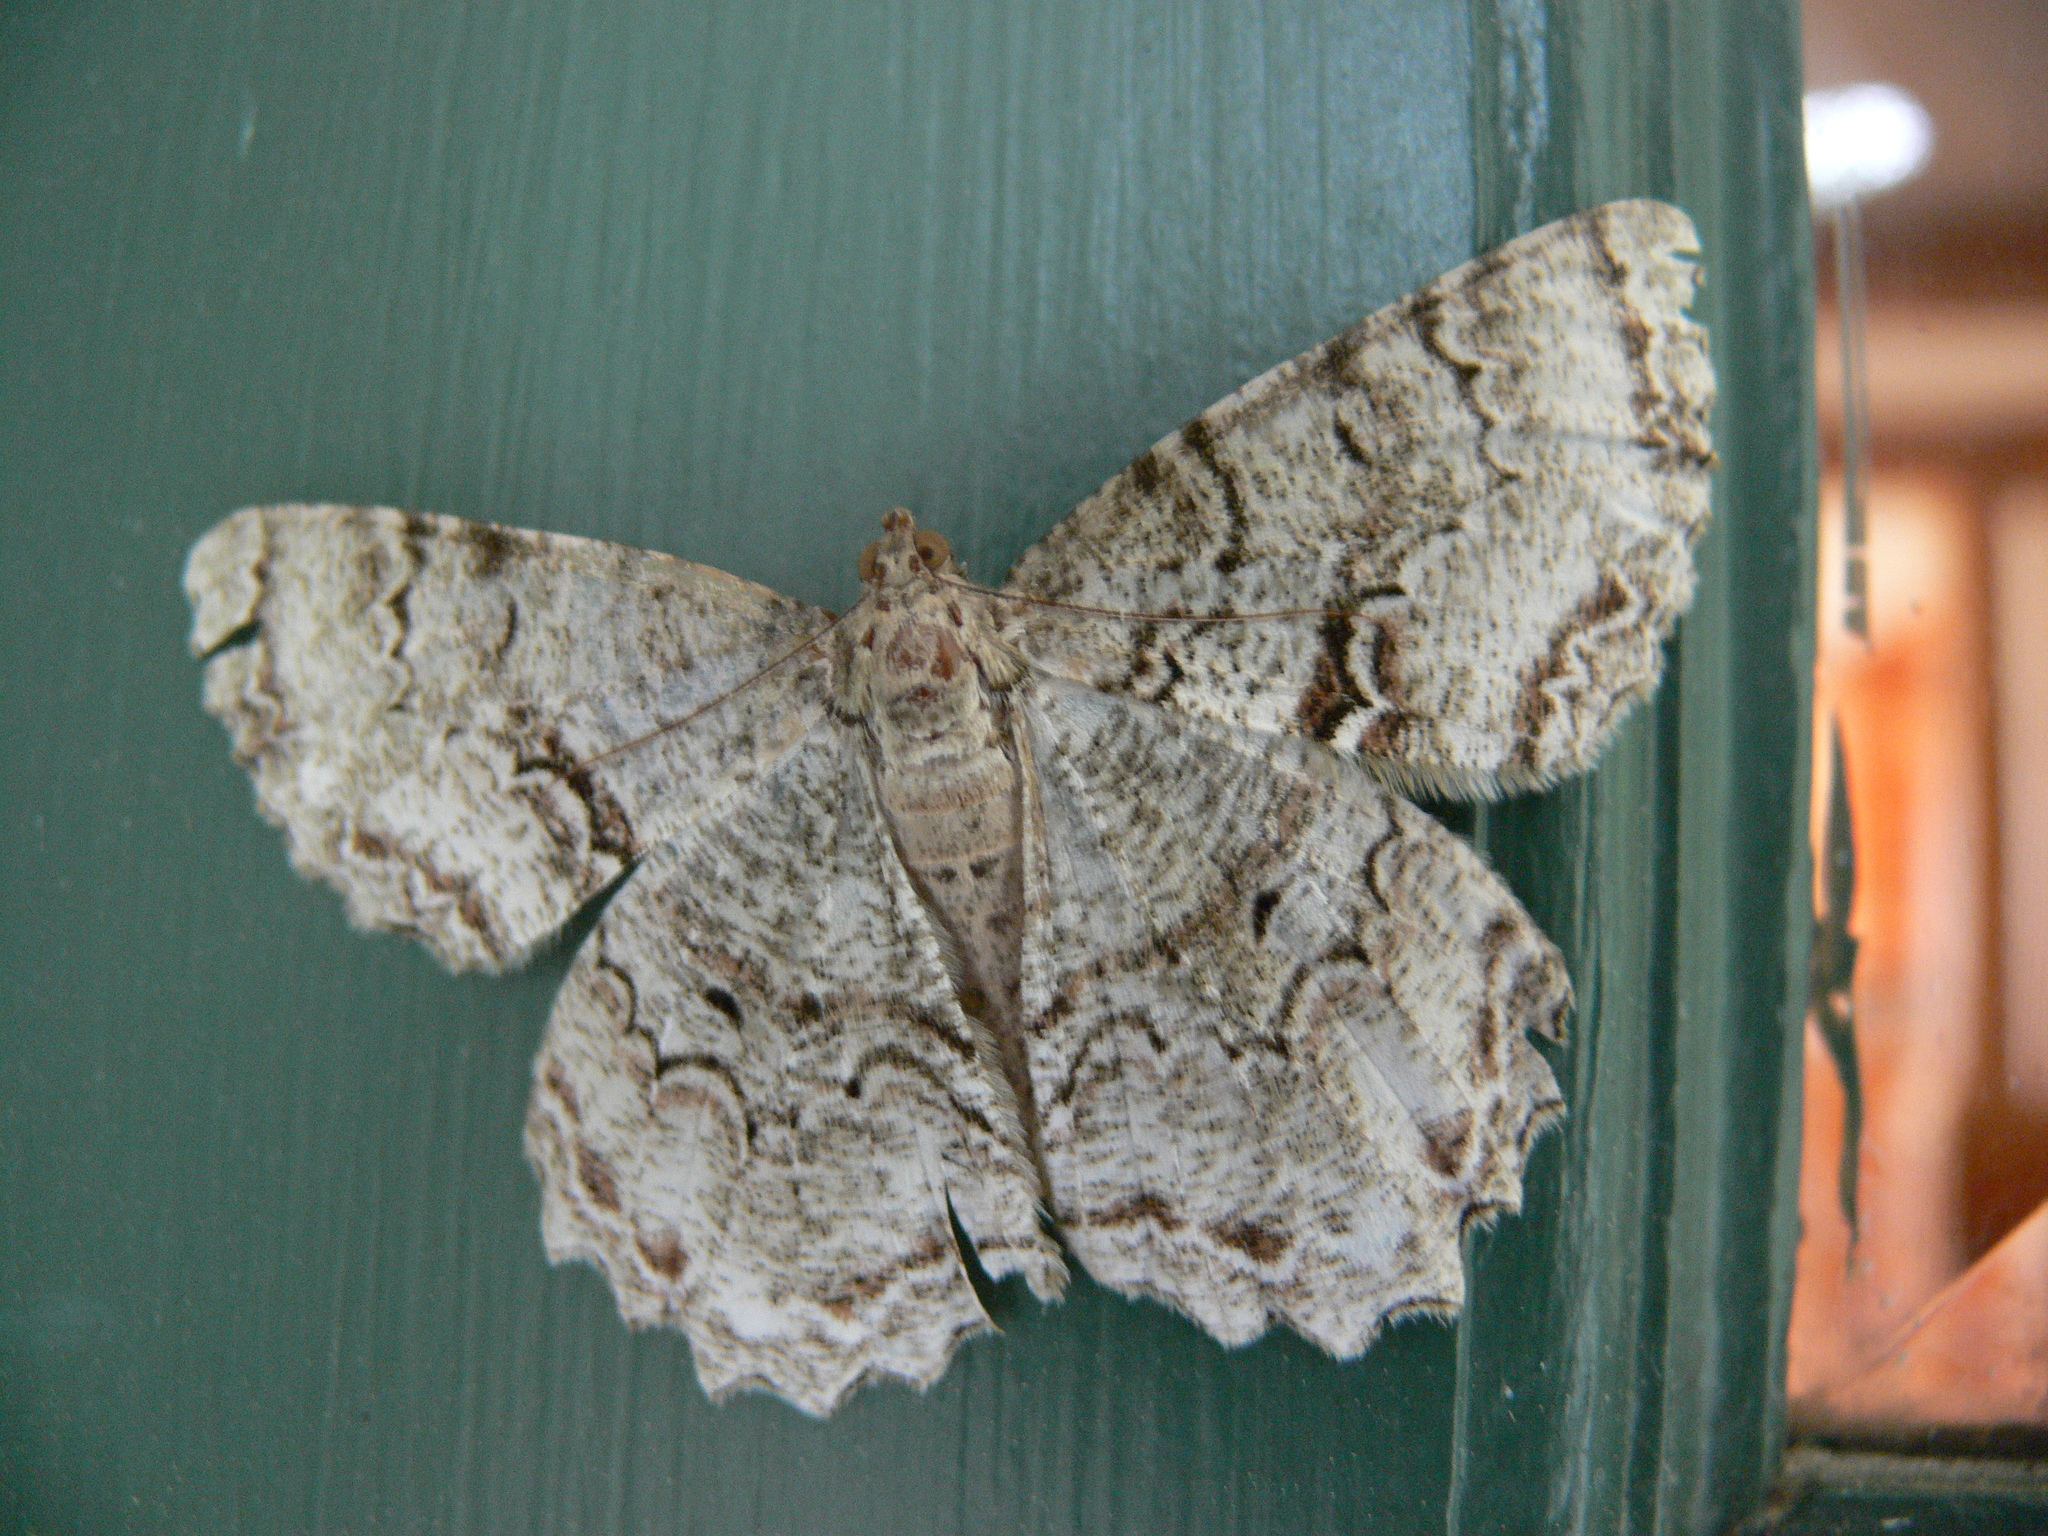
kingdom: Animalia
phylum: Arthropoda
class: Insecta
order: Lepidoptera
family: Geometridae
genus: Epimecis
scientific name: Epimecis hortaria
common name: Tulip-tree beauty
